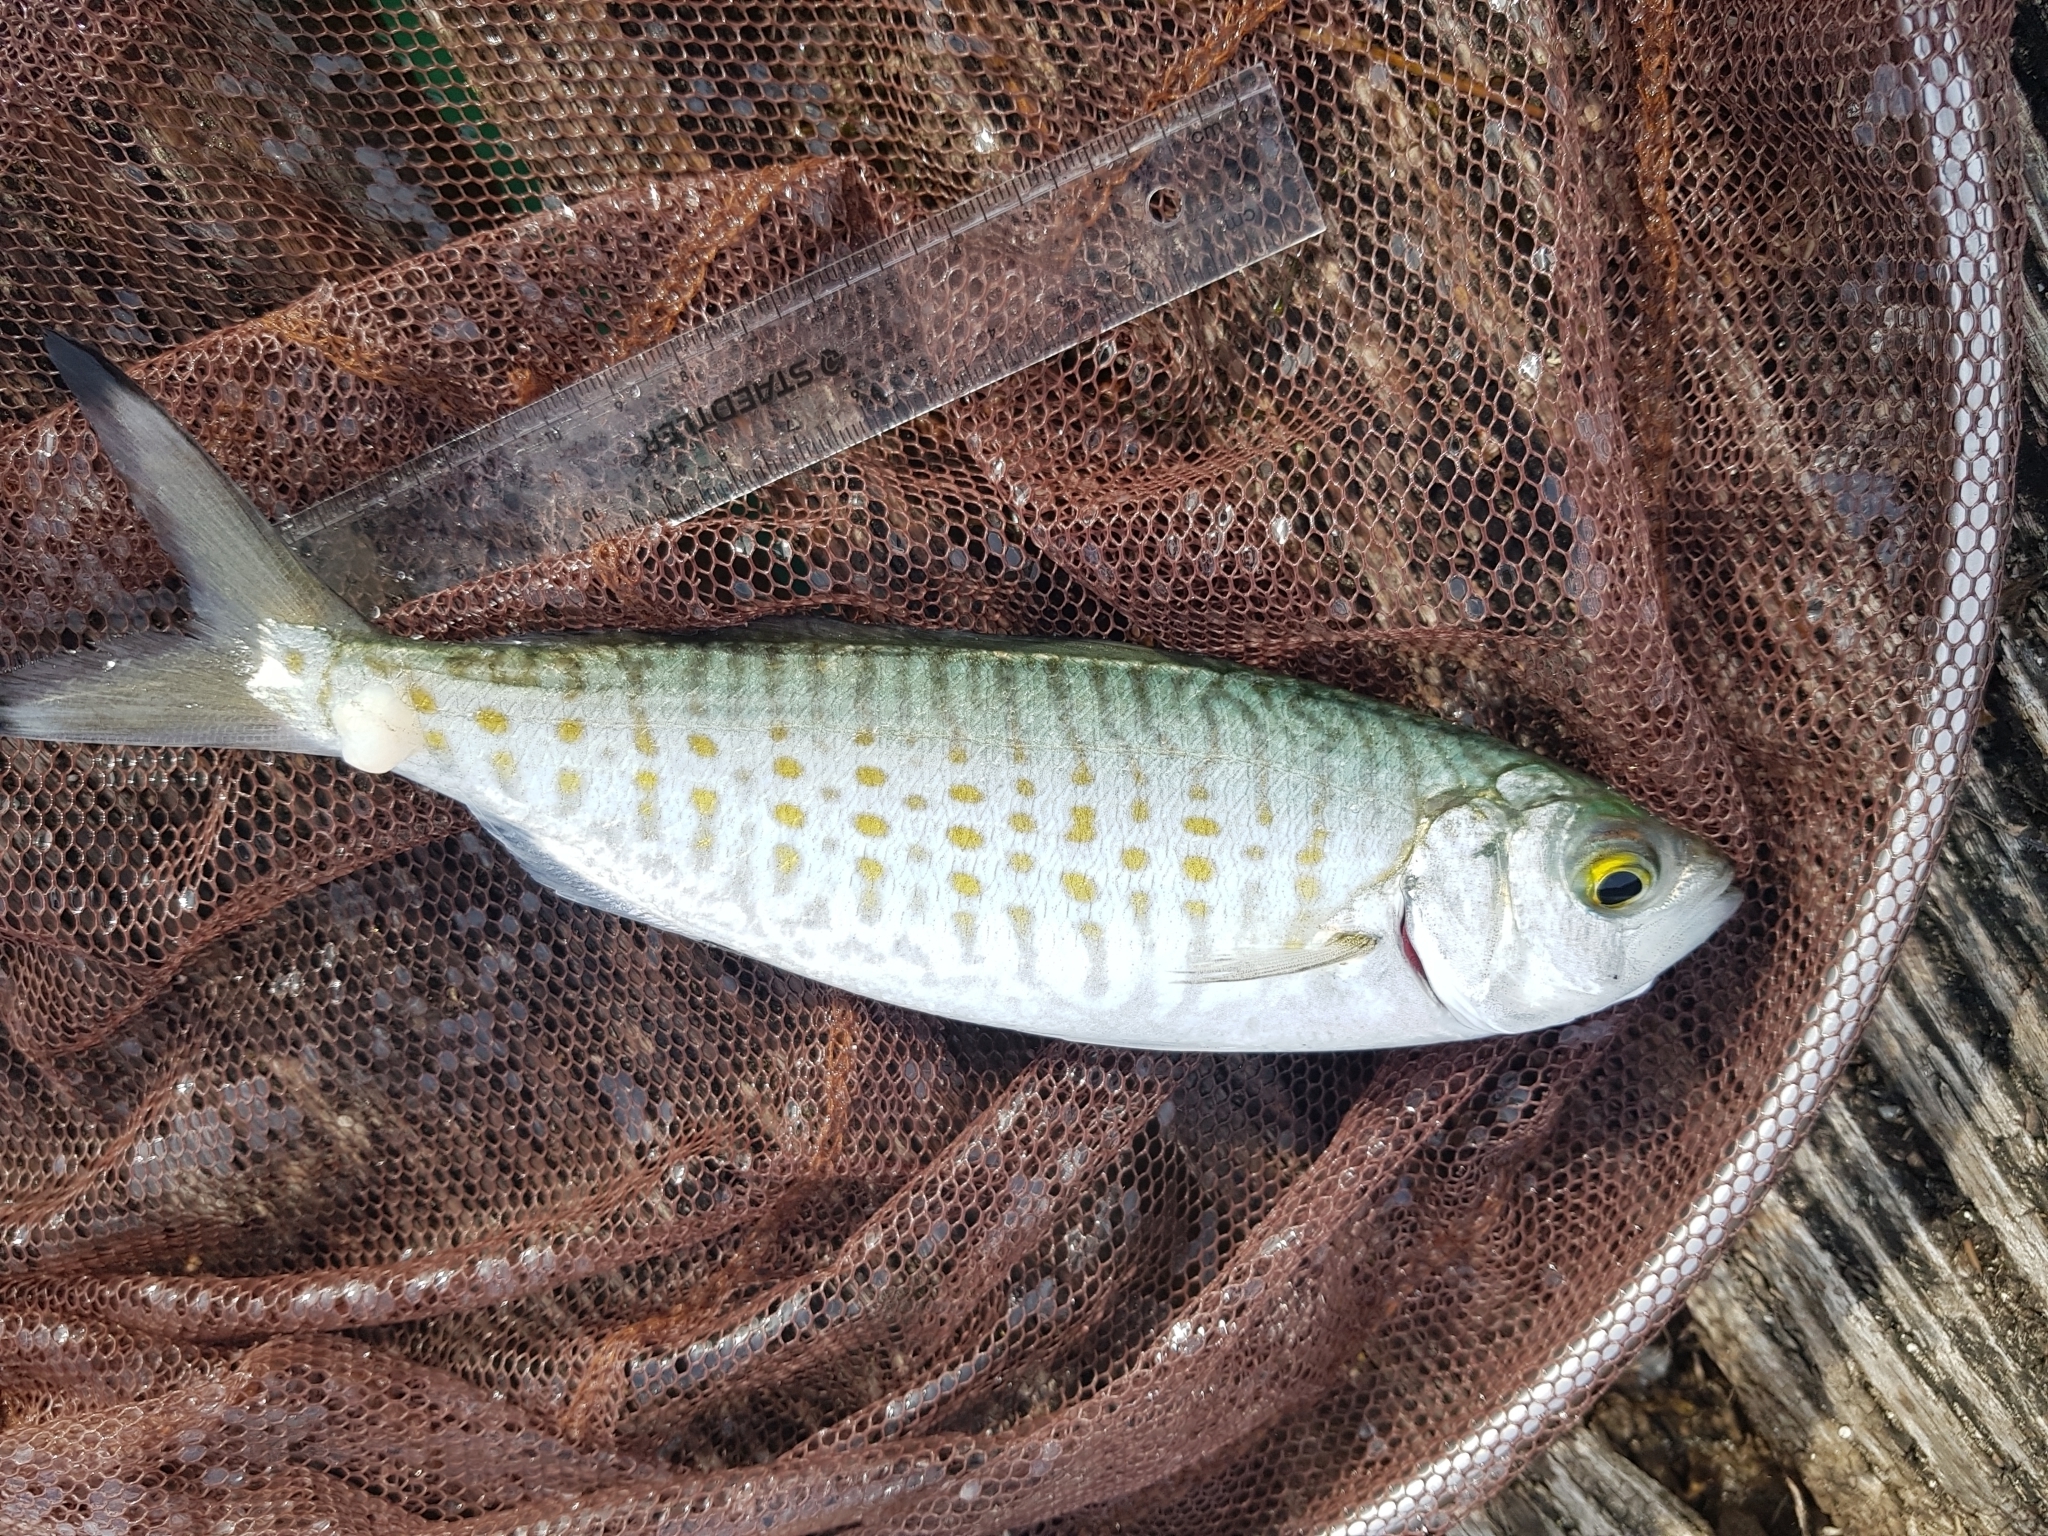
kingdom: Animalia
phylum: Chordata
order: Perciformes
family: Arripidae
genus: Arripis
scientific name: Arripis georgianus
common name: Australian herring
